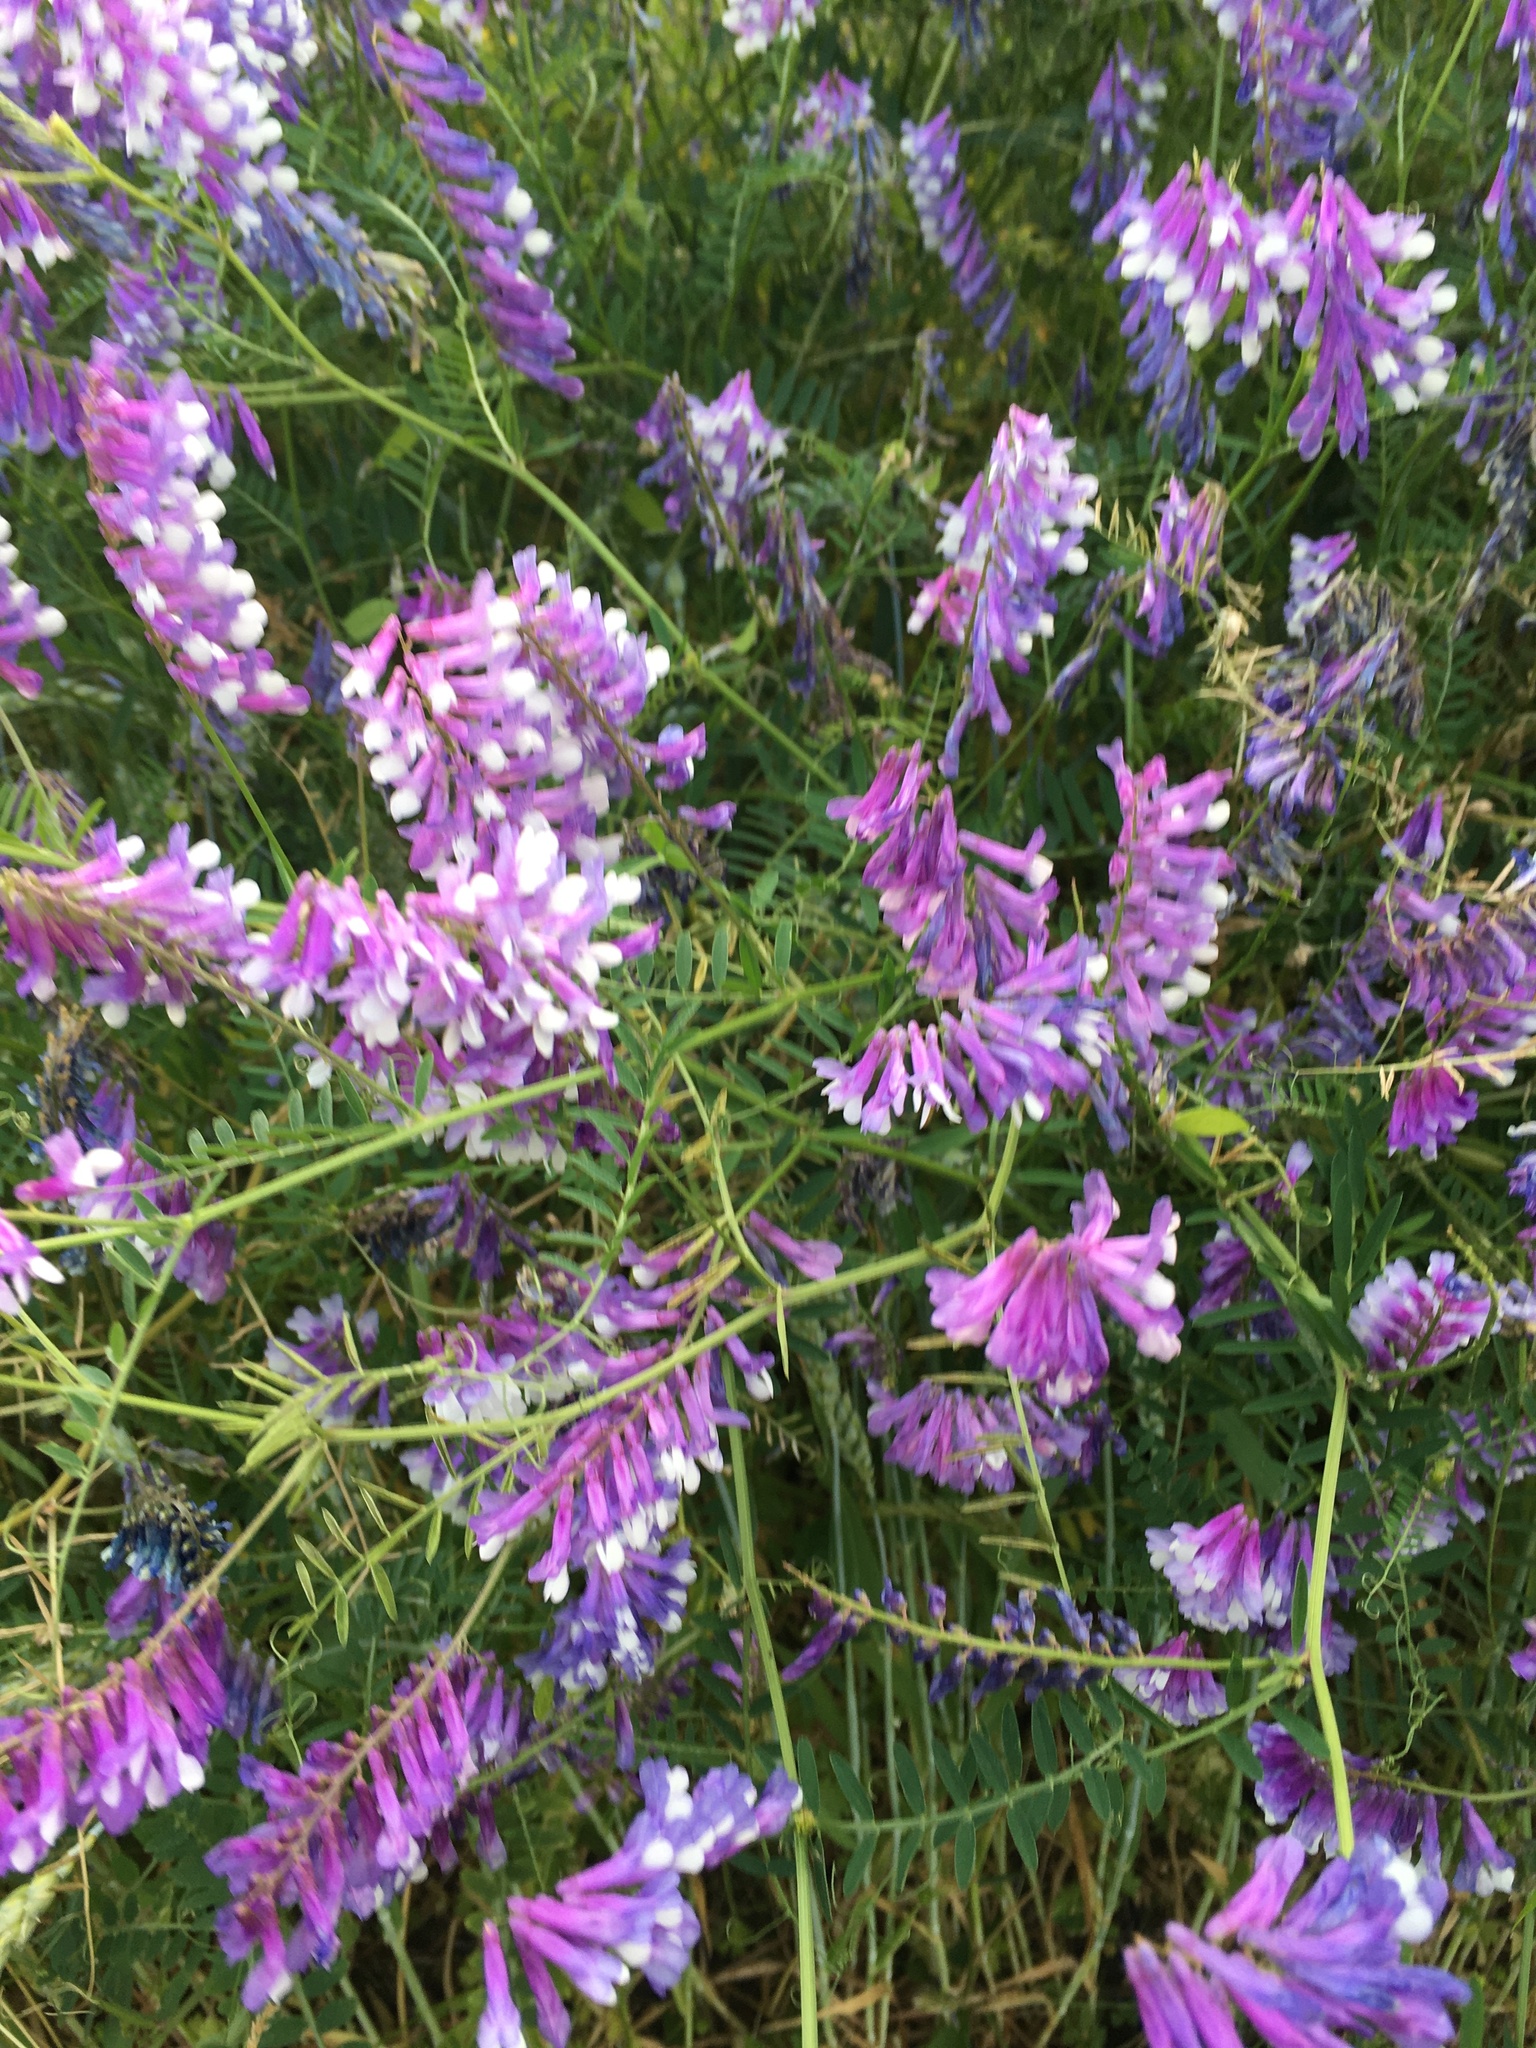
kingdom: Plantae
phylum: Tracheophyta
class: Magnoliopsida
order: Fabales
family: Fabaceae
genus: Vicia
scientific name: Vicia villosa
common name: Fodder vetch
